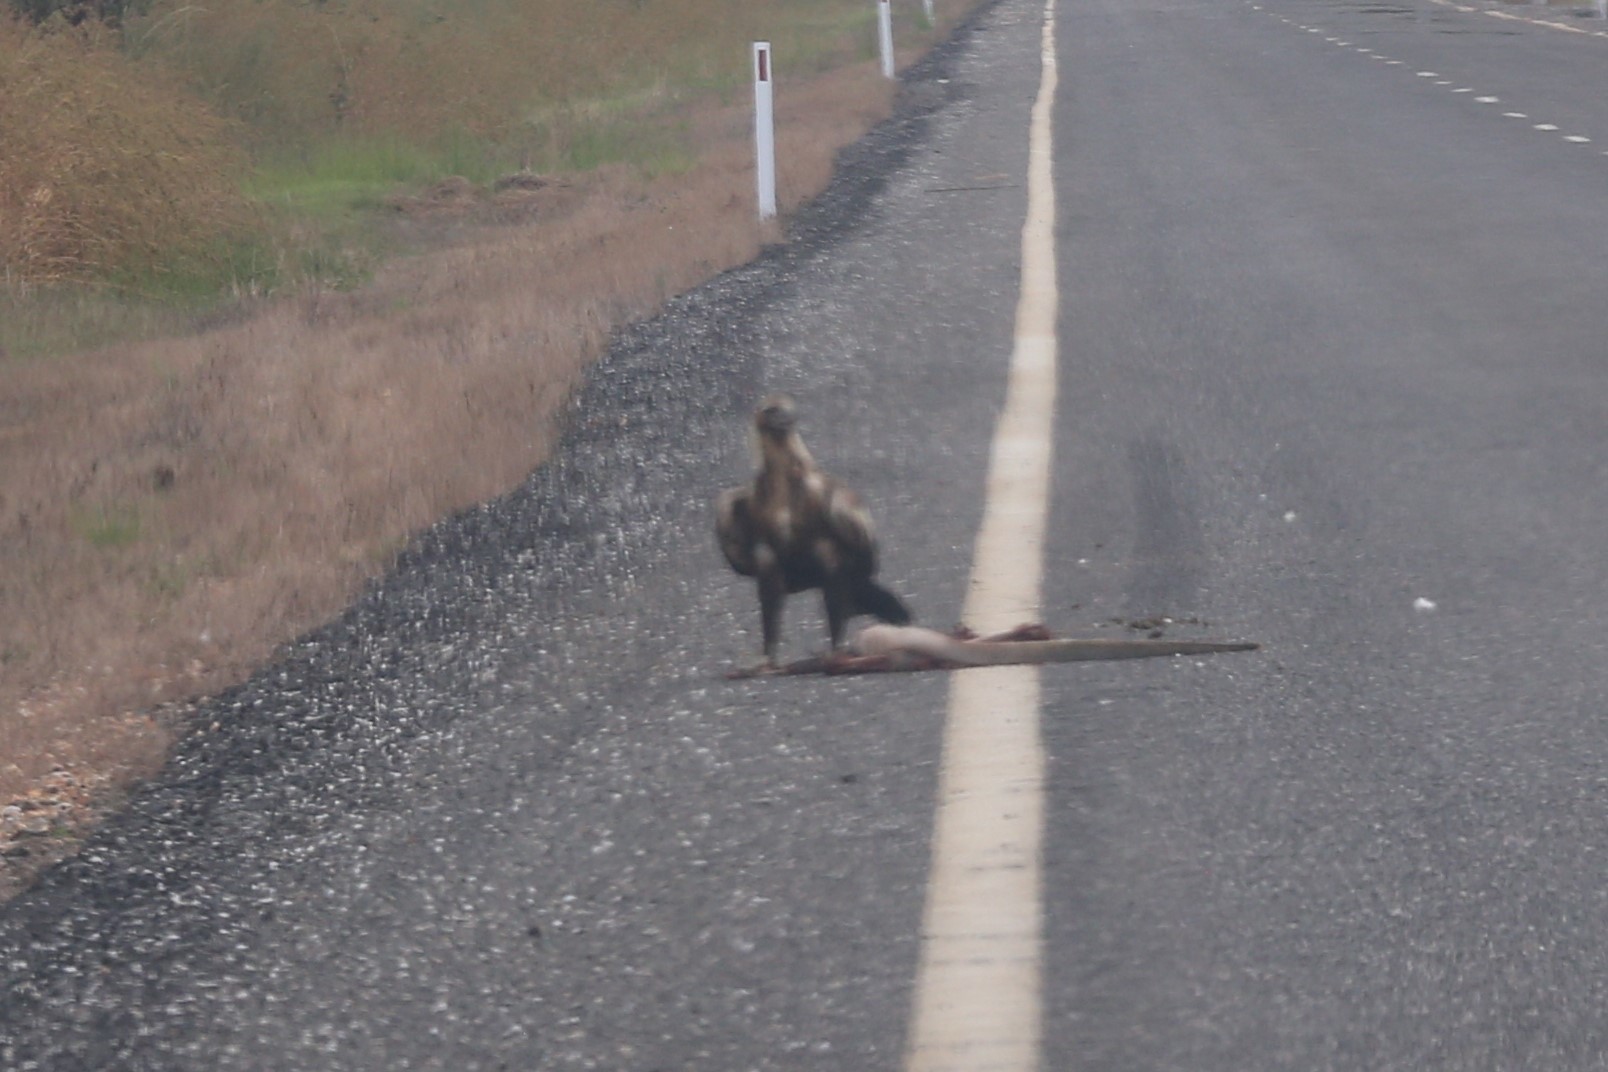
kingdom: Animalia
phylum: Chordata
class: Aves
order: Accipitriformes
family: Accipitridae
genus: Aquila
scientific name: Aquila audax
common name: Wedge-tailed eagle
